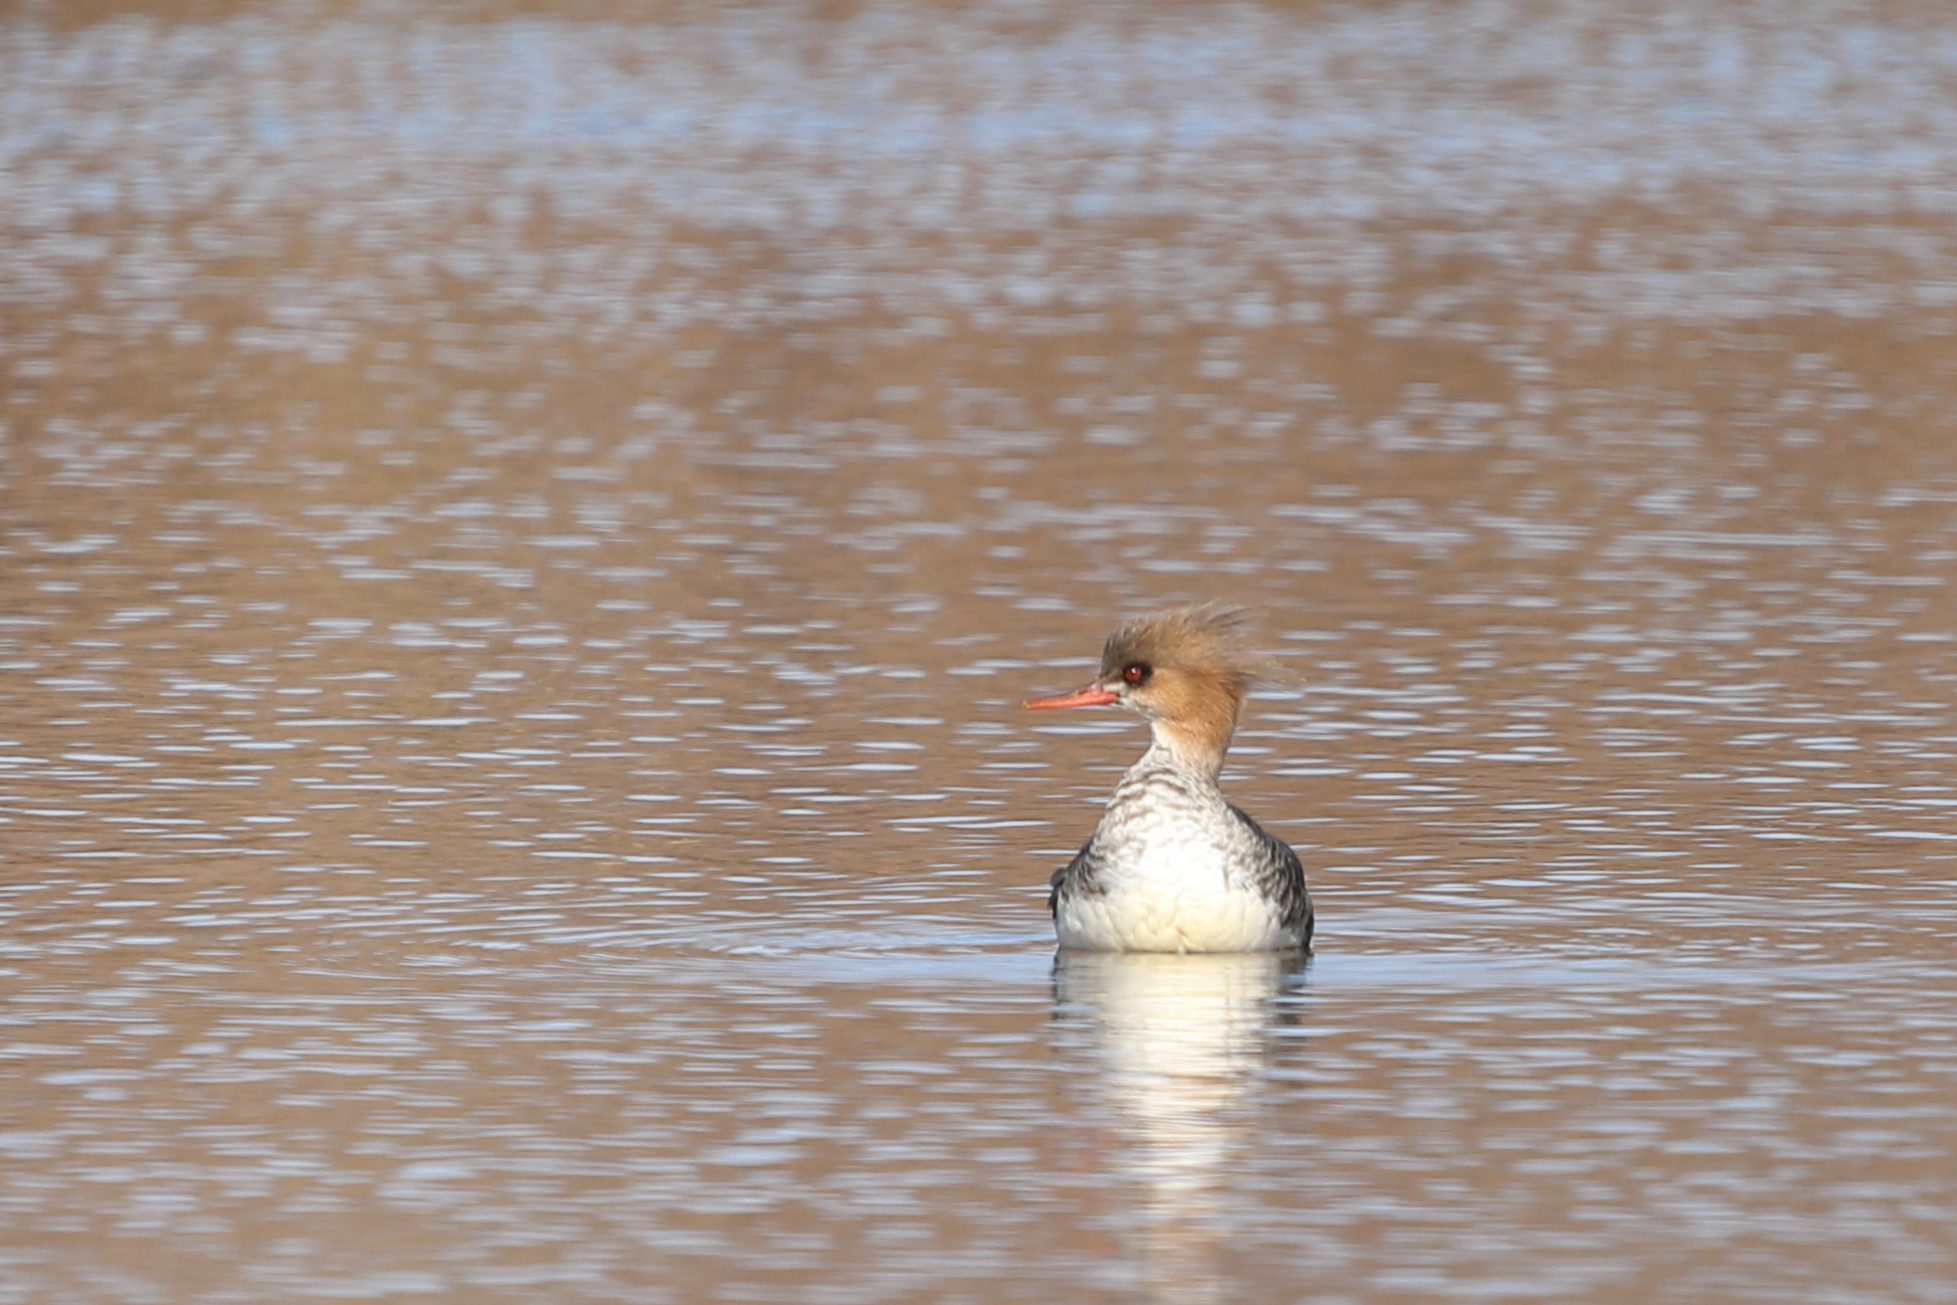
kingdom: Animalia
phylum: Chordata
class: Aves
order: Anseriformes
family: Anatidae
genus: Mergus
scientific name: Mergus serrator
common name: Red-breasted merganser
